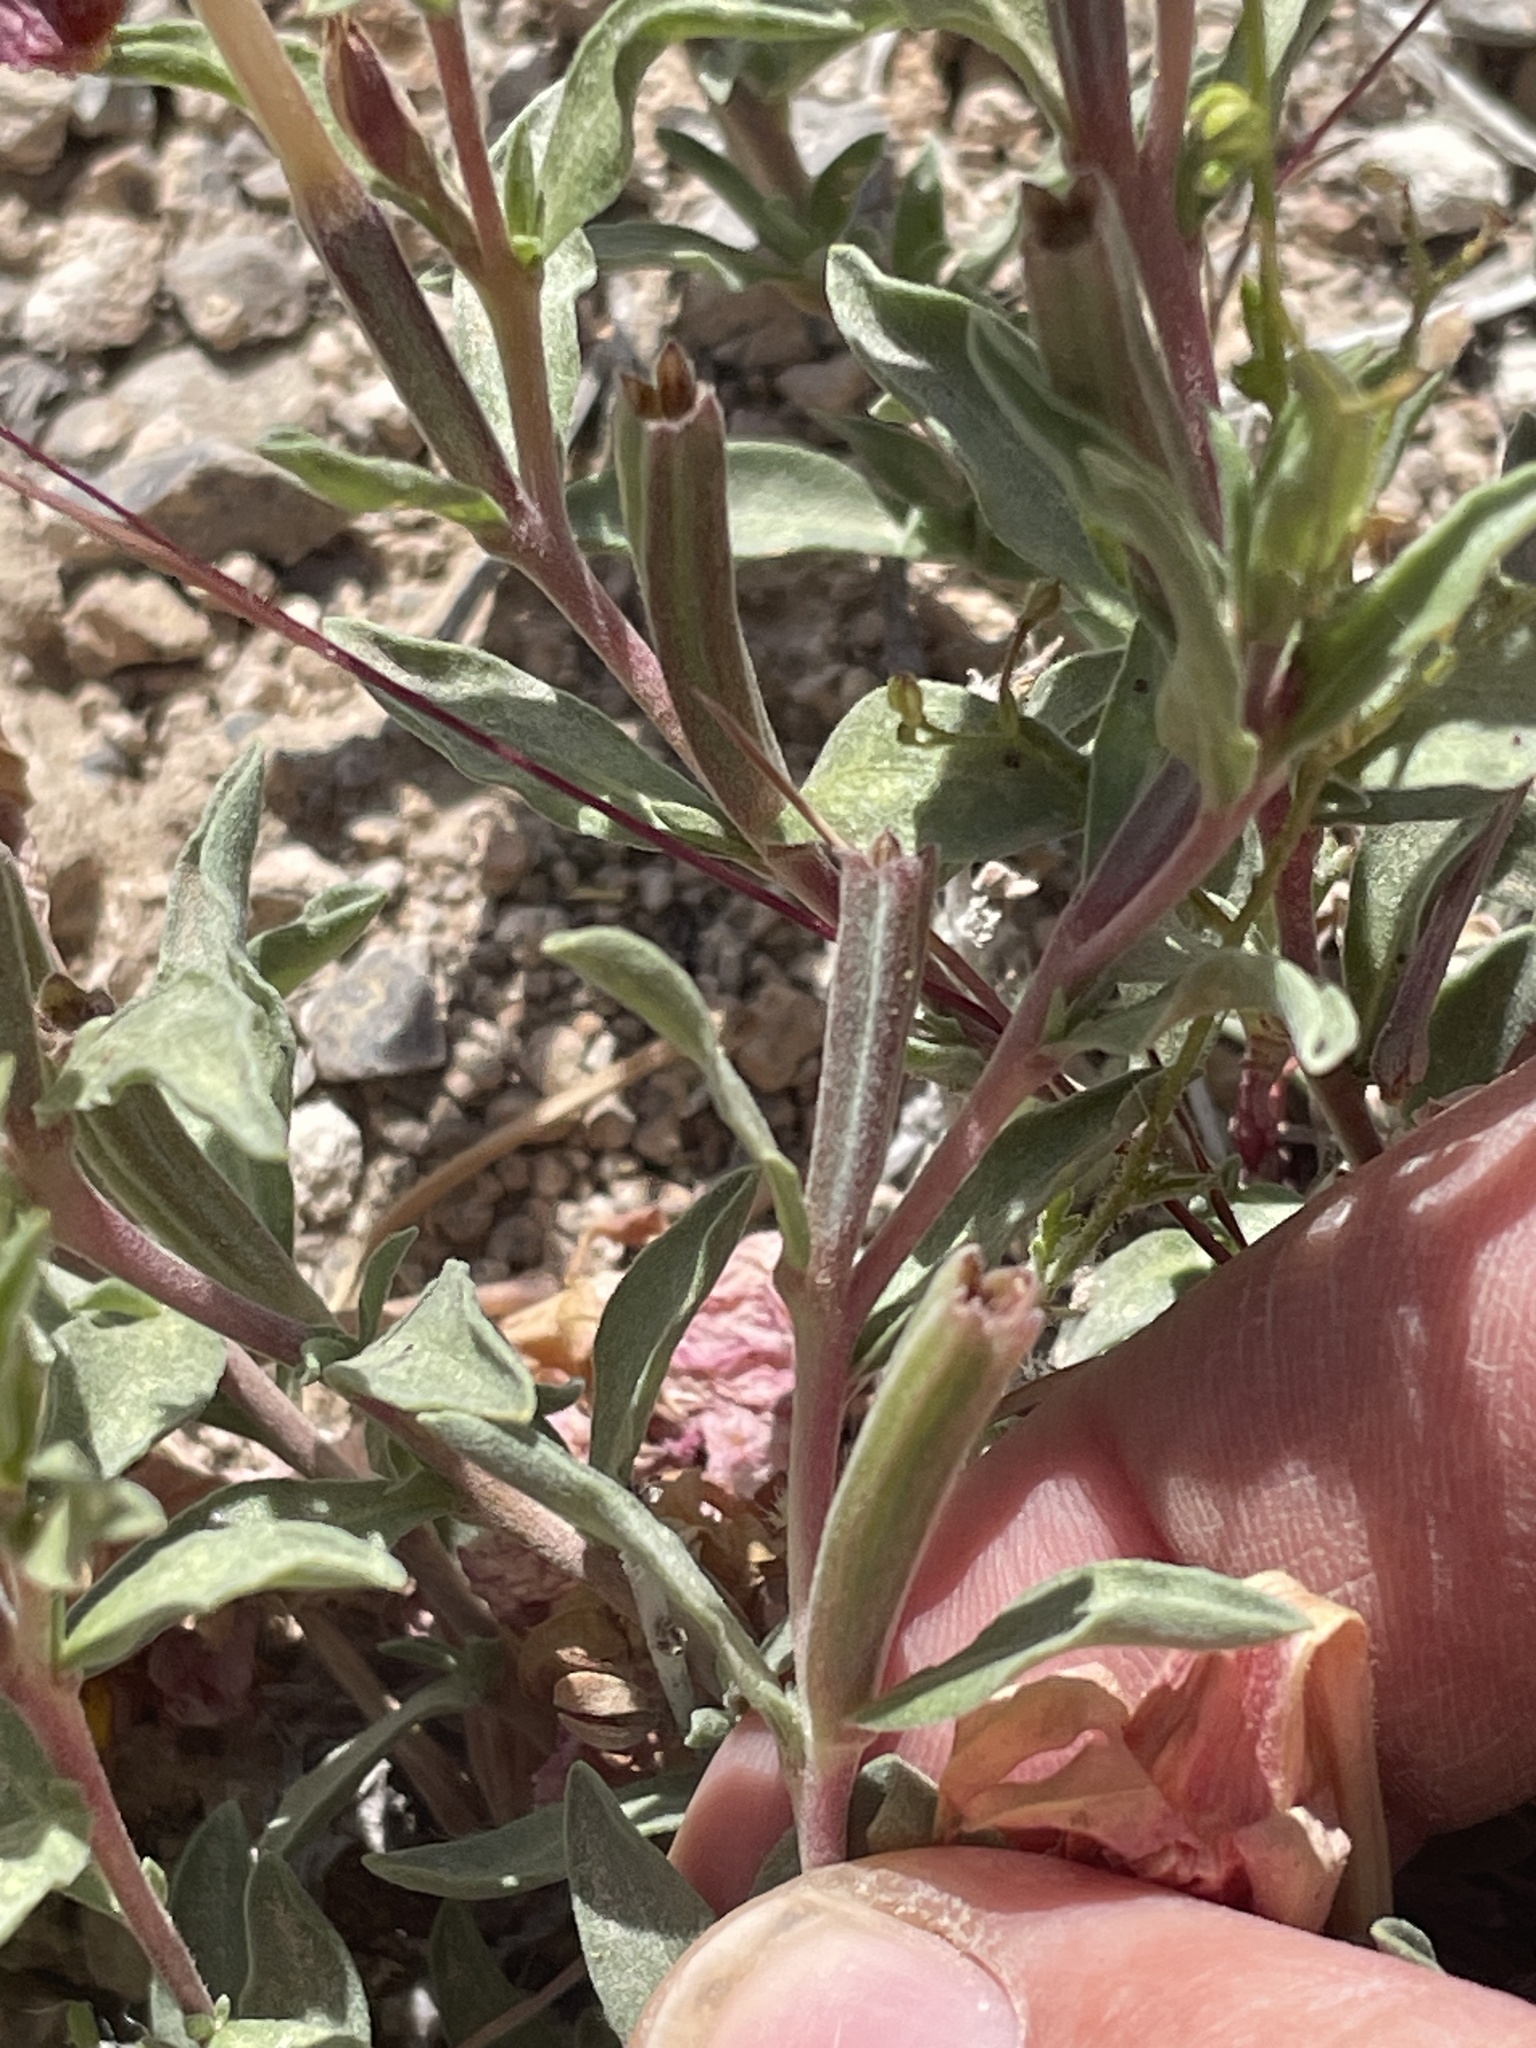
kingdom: Plantae
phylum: Tracheophyta
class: Magnoliopsida
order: Myrtales
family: Onagraceae
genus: Oenothera
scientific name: Oenothera lavandulifolia
